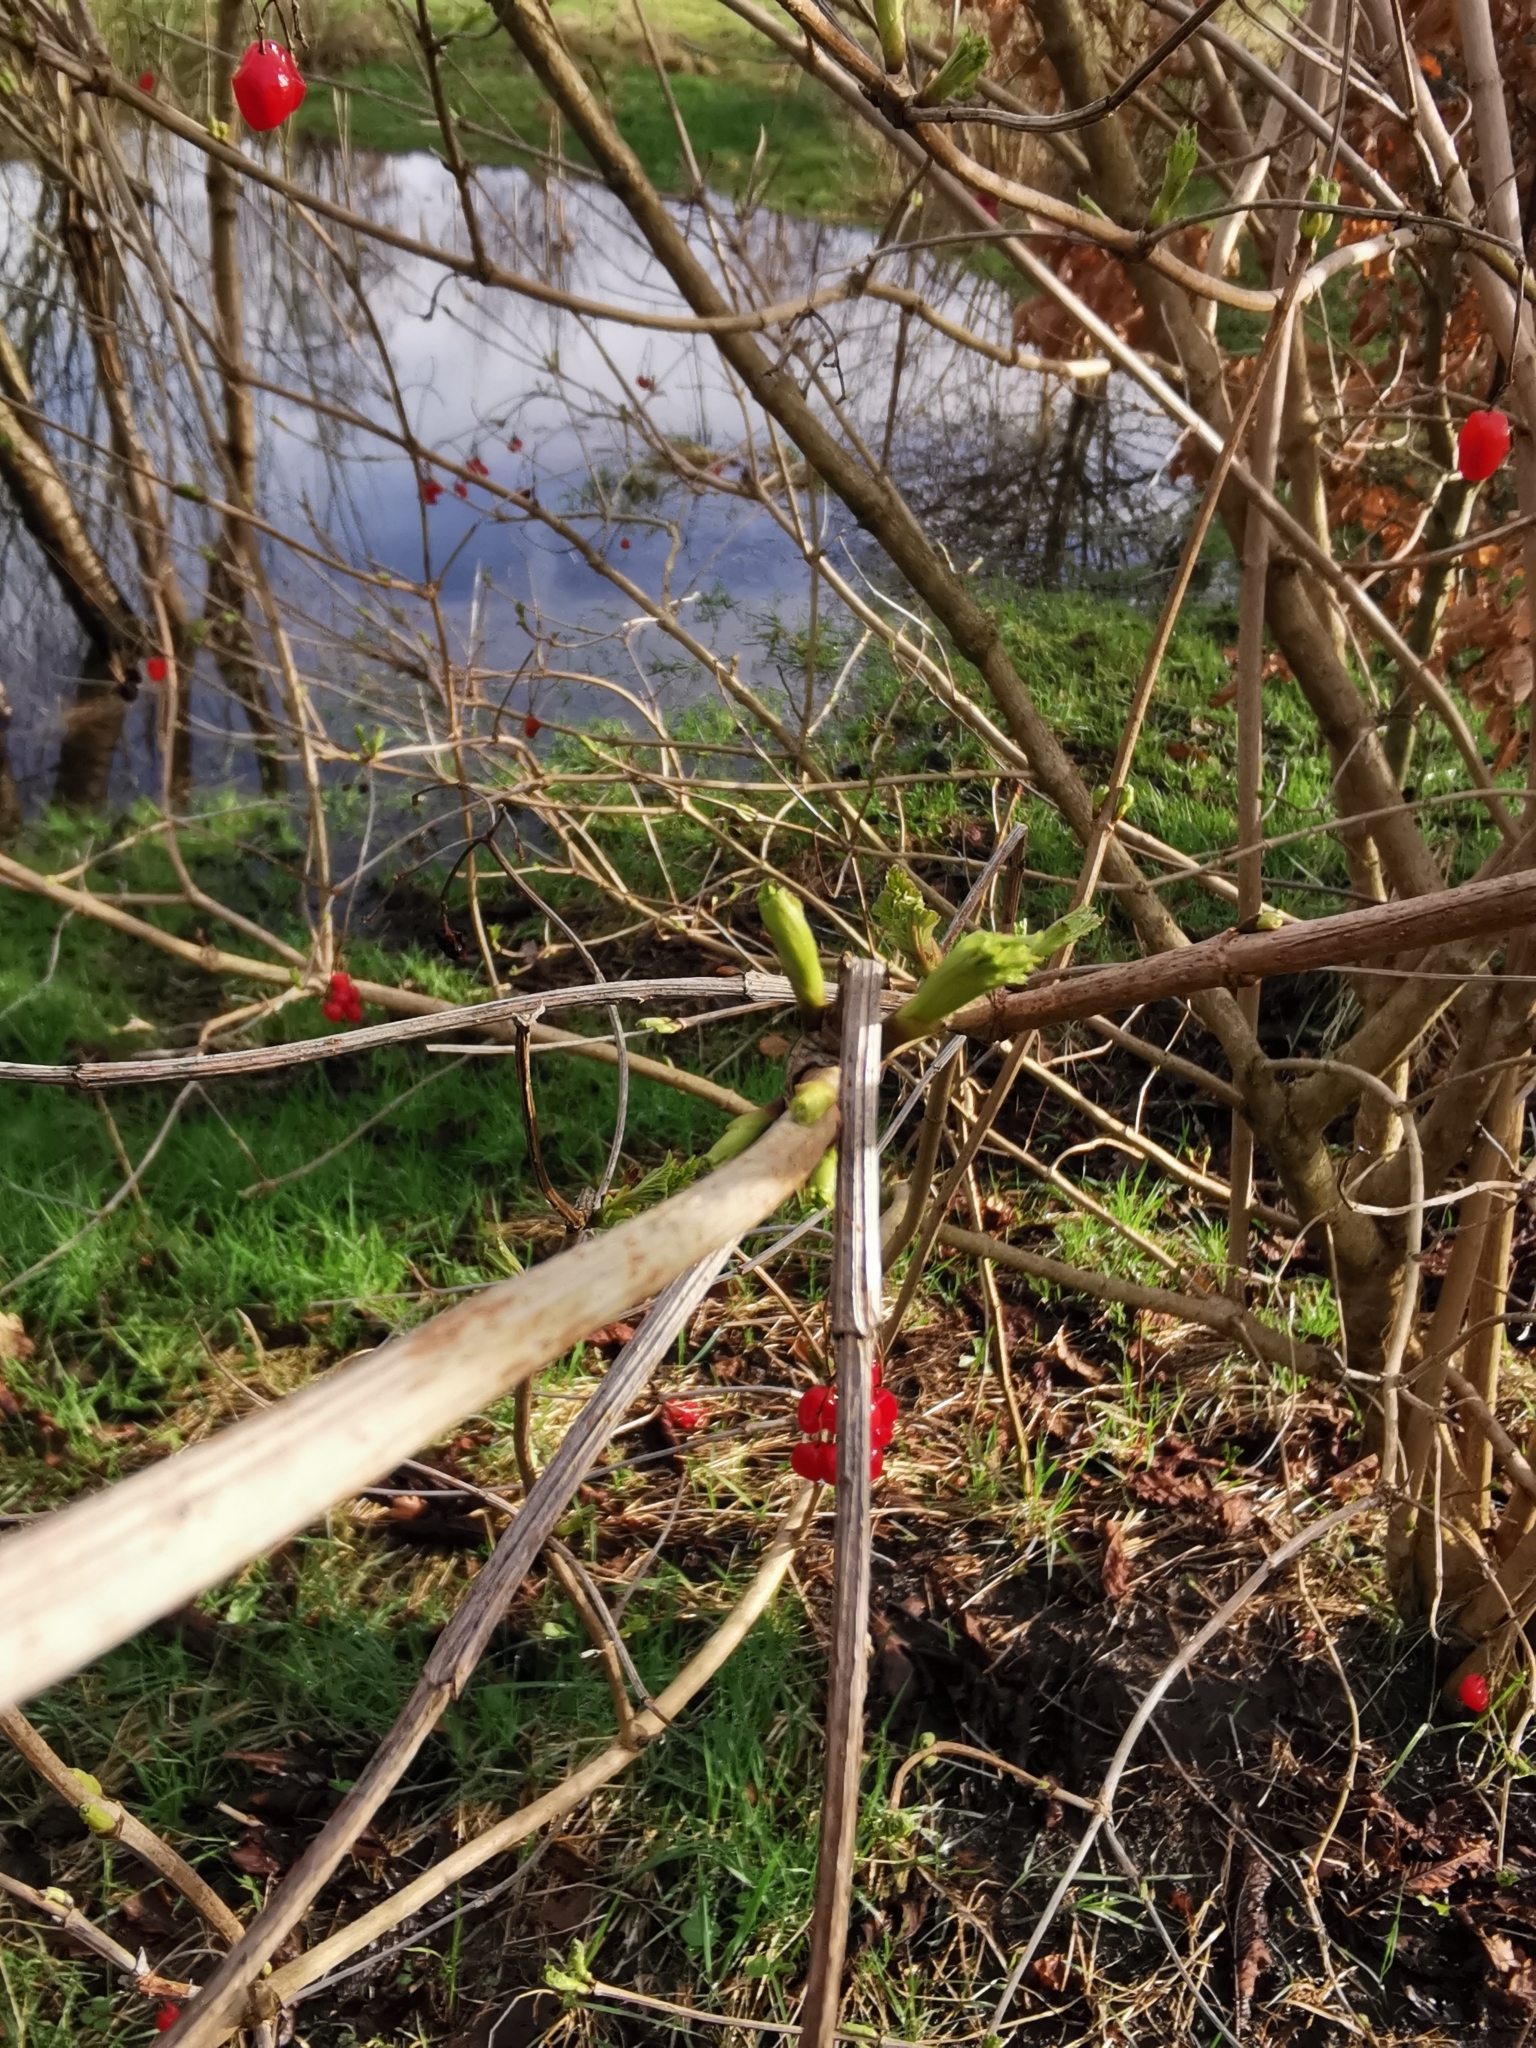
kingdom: Plantae
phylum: Tracheophyta
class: Magnoliopsida
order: Dipsacales
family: Viburnaceae
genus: Viburnum
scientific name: Viburnum opulus
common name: Guelder-rose
